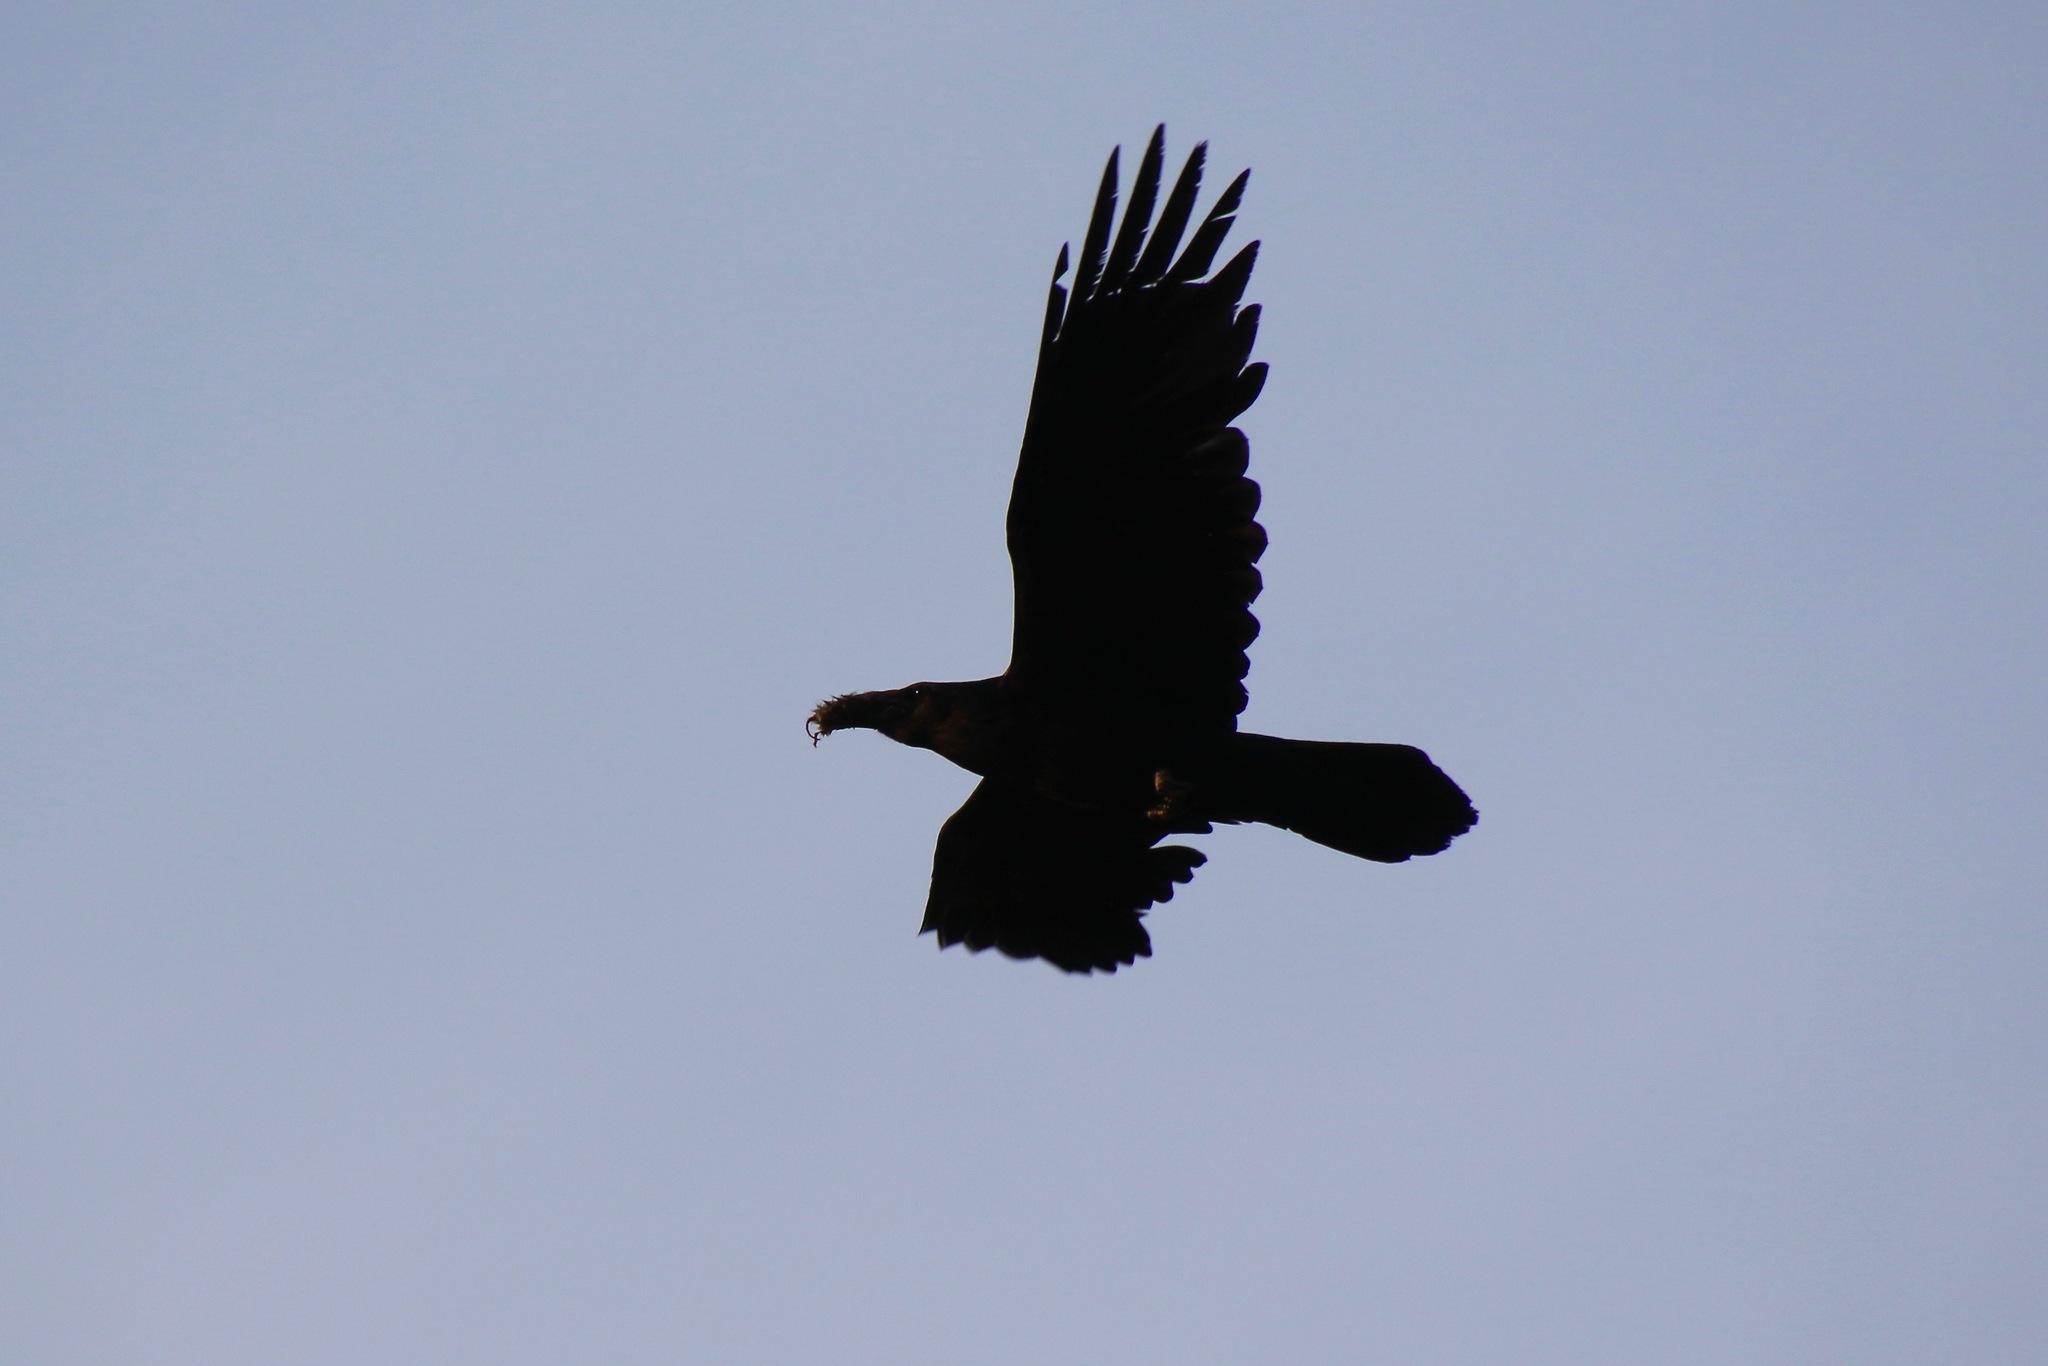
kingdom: Animalia
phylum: Chordata
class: Aves
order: Passeriformes
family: Corvidae
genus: Corvus
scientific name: Corvus corax
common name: Common raven
